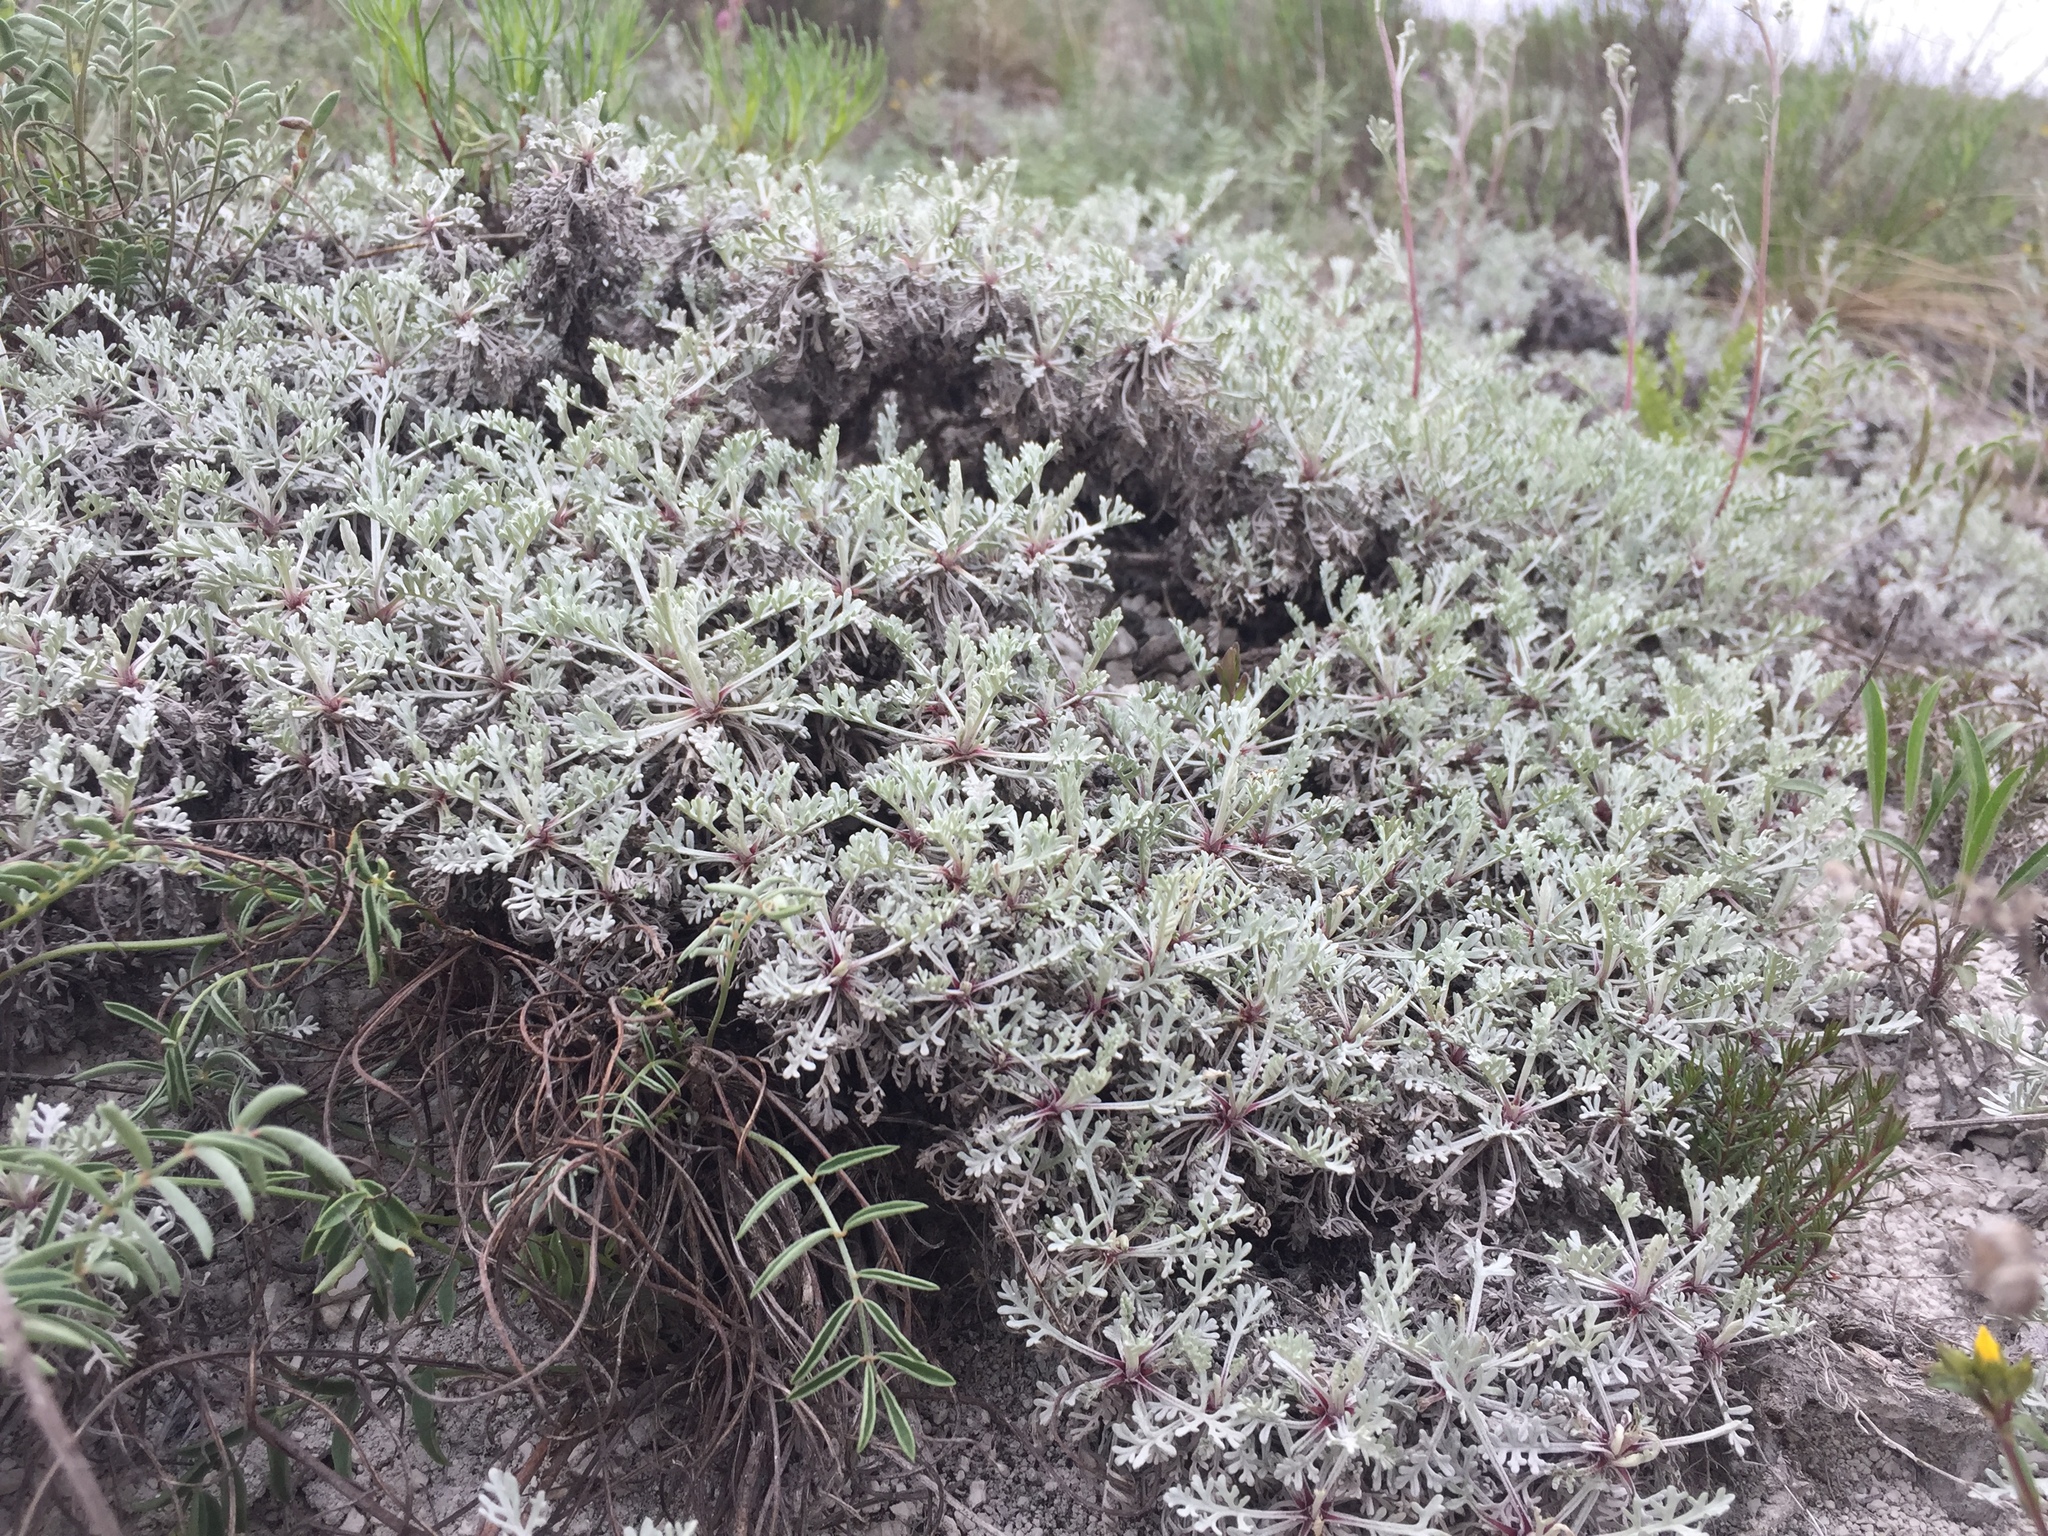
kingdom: Plantae
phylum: Tracheophyta
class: Magnoliopsida
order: Asterales
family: Asteraceae
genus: Artemisia
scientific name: Artemisia hololeuca
